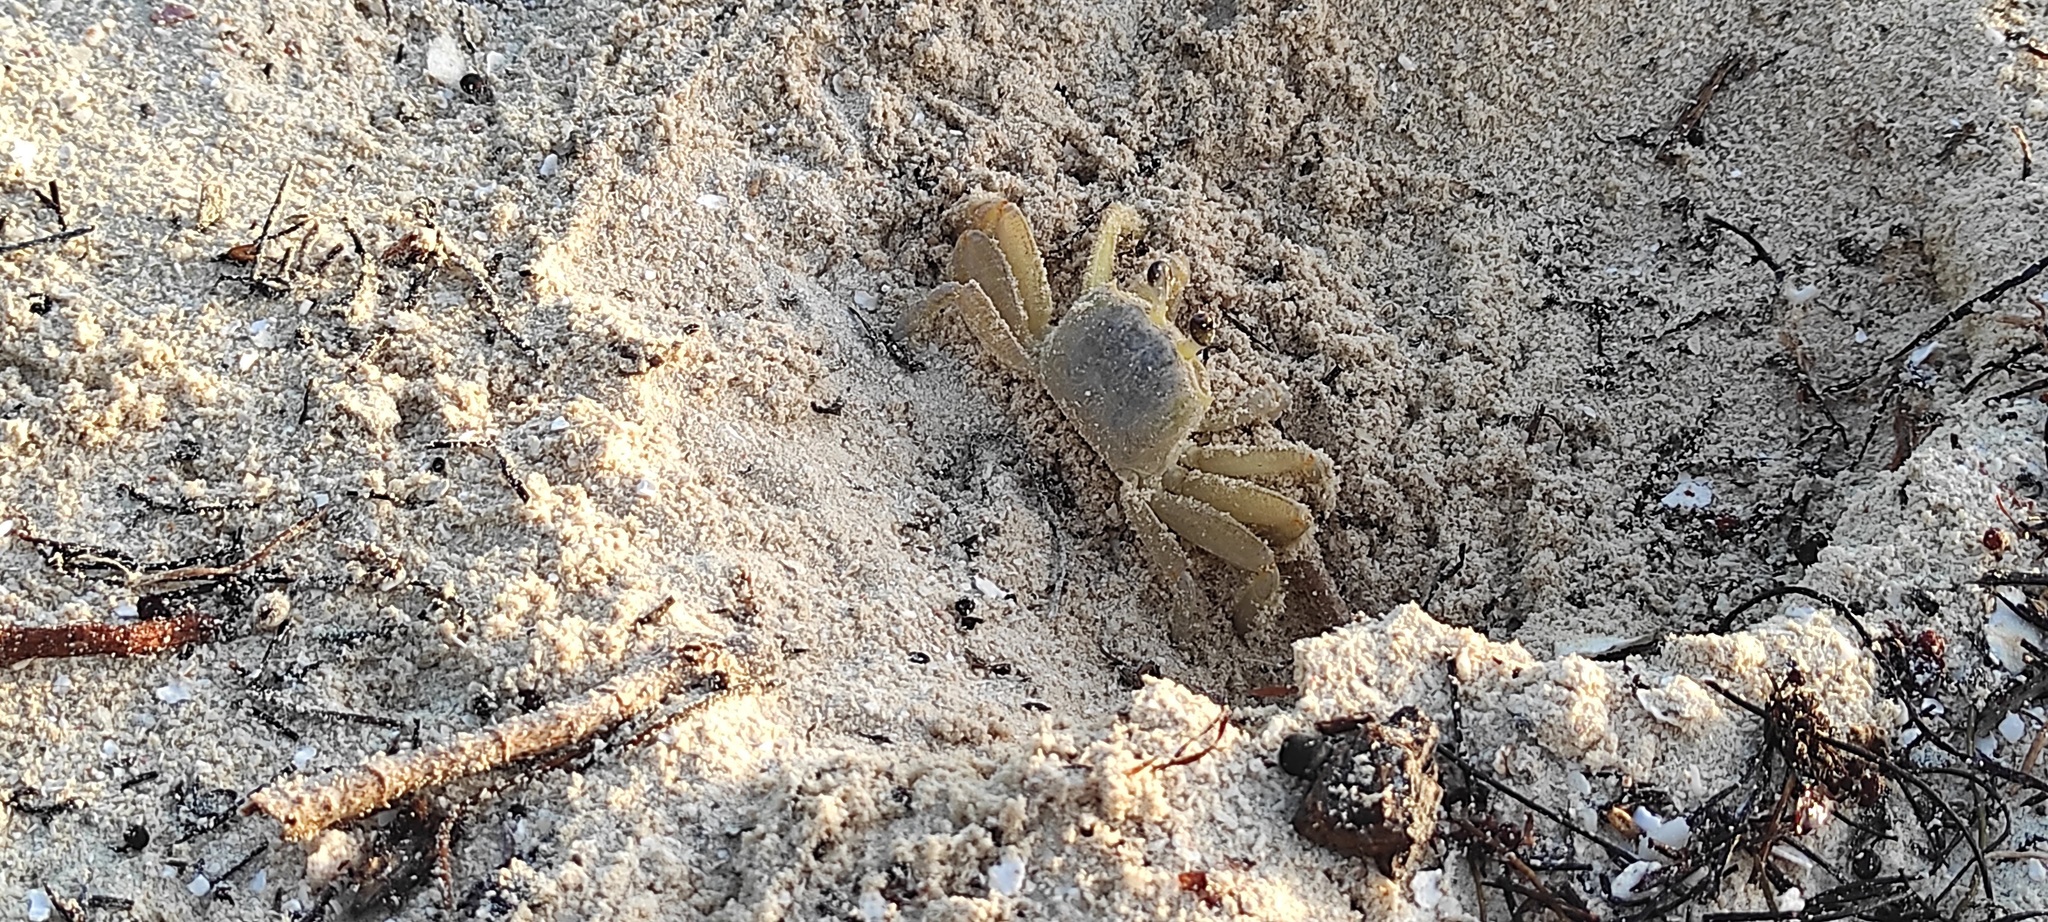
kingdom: Animalia
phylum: Arthropoda
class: Malacostraca
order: Decapoda
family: Ocypodidae
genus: Ocypode
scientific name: Ocypode quadrata
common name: Ghost crab
